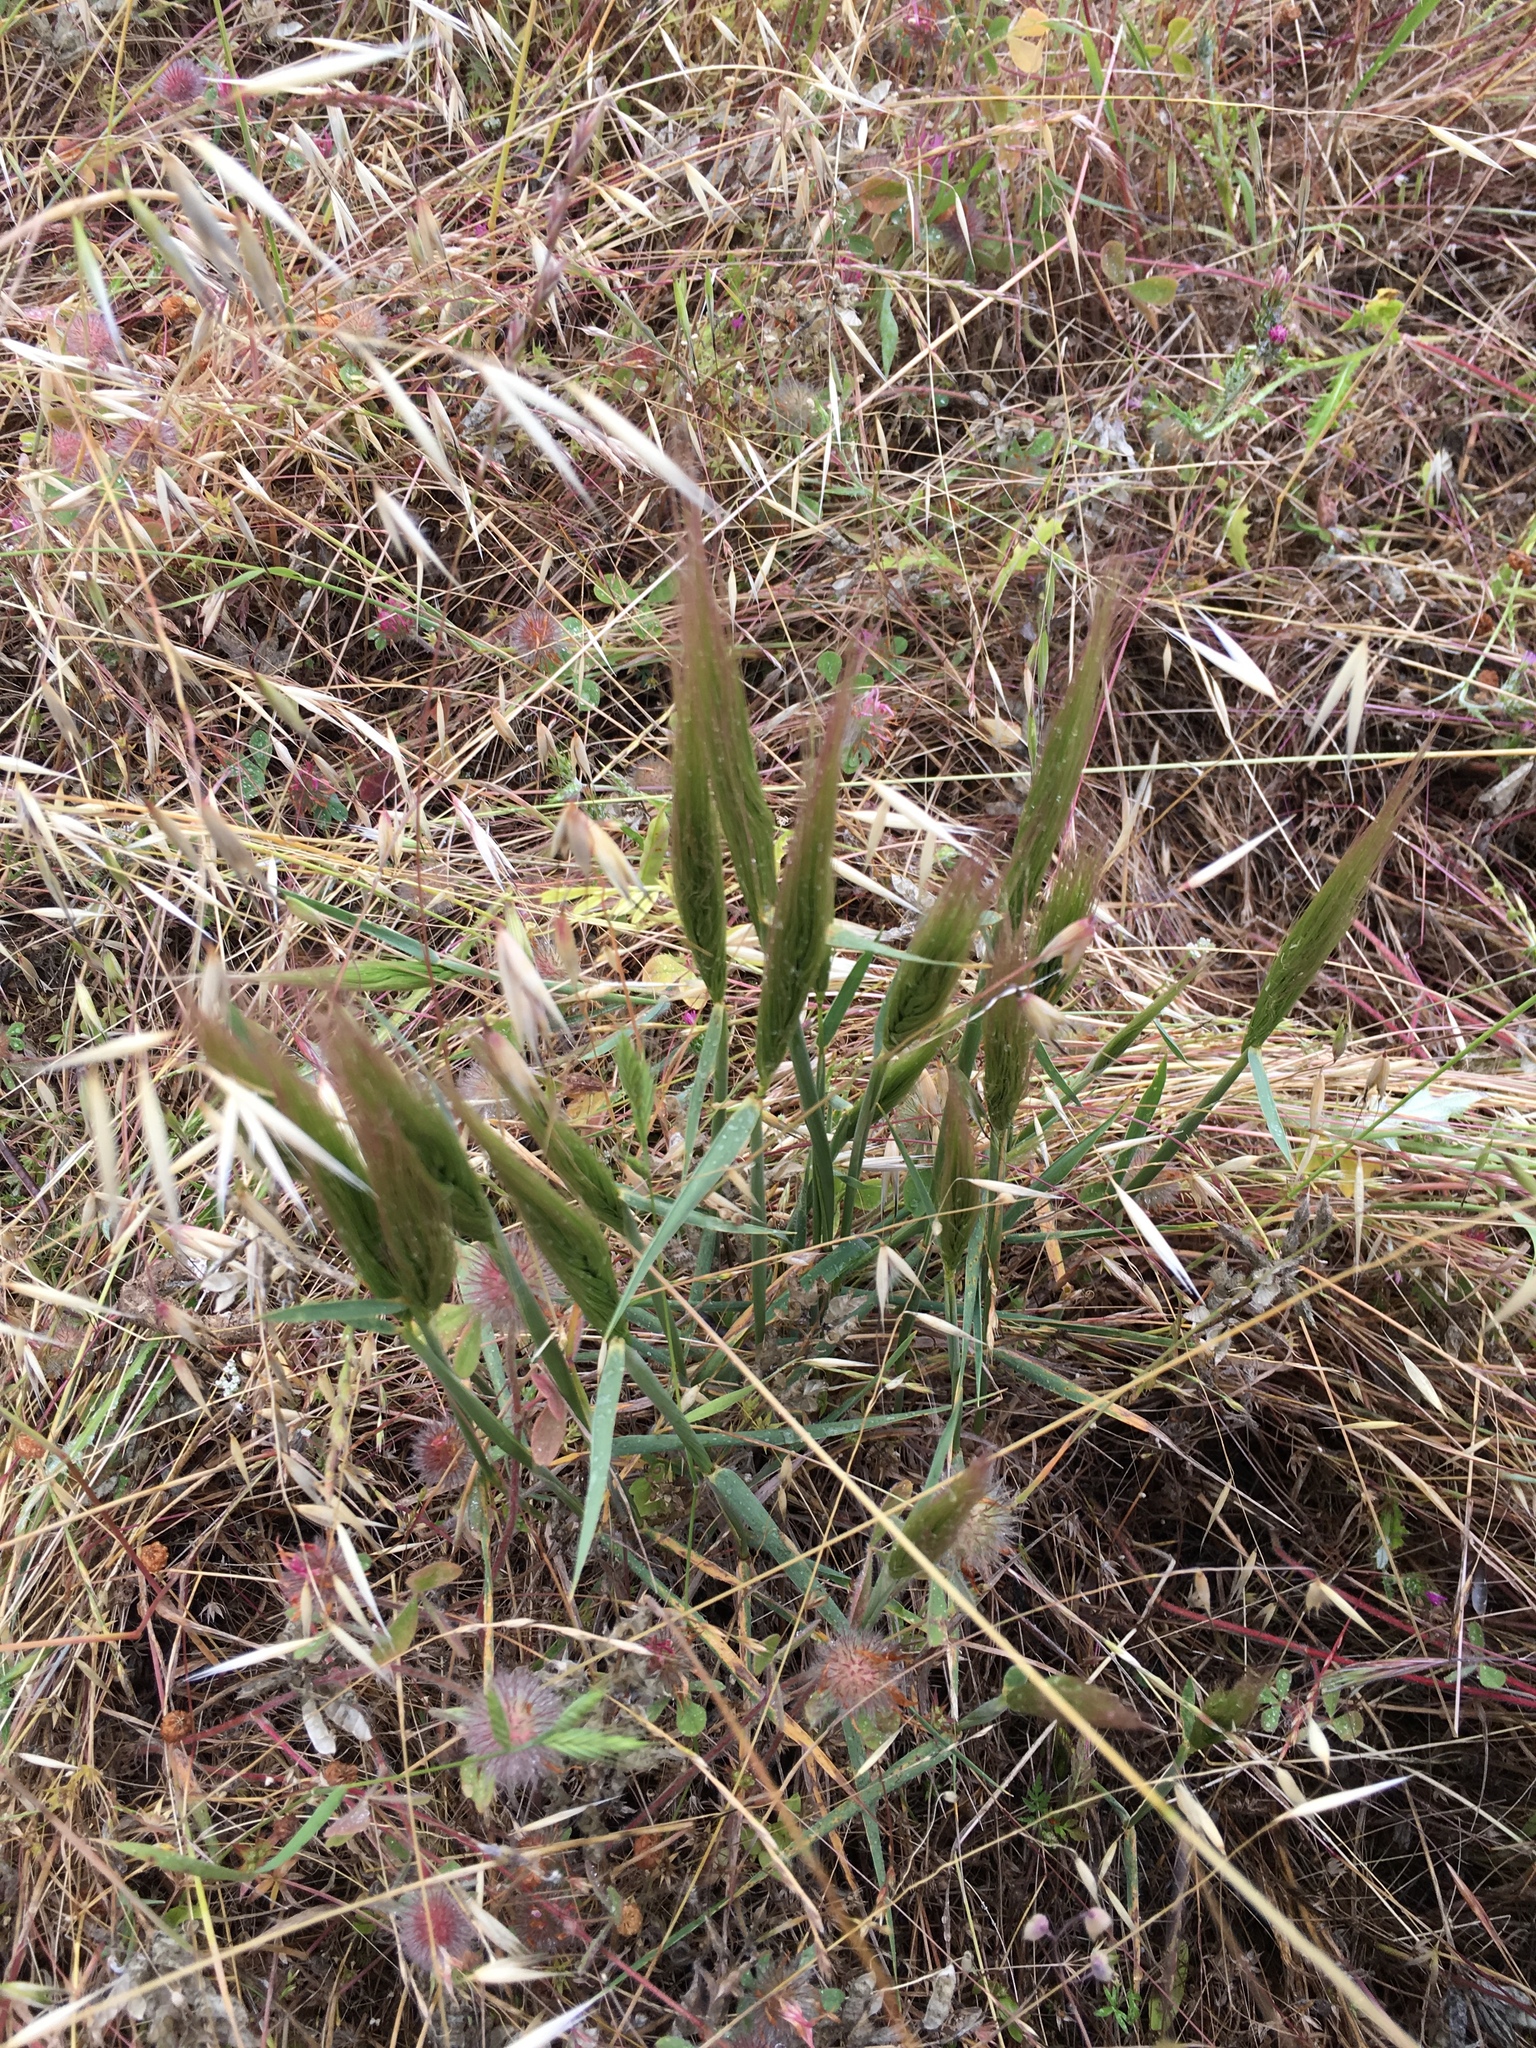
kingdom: Plantae
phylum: Tracheophyta
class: Liliopsida
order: Poales
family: Poaceae
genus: Elymus
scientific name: Elymus multisetus
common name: Big squirreltail
